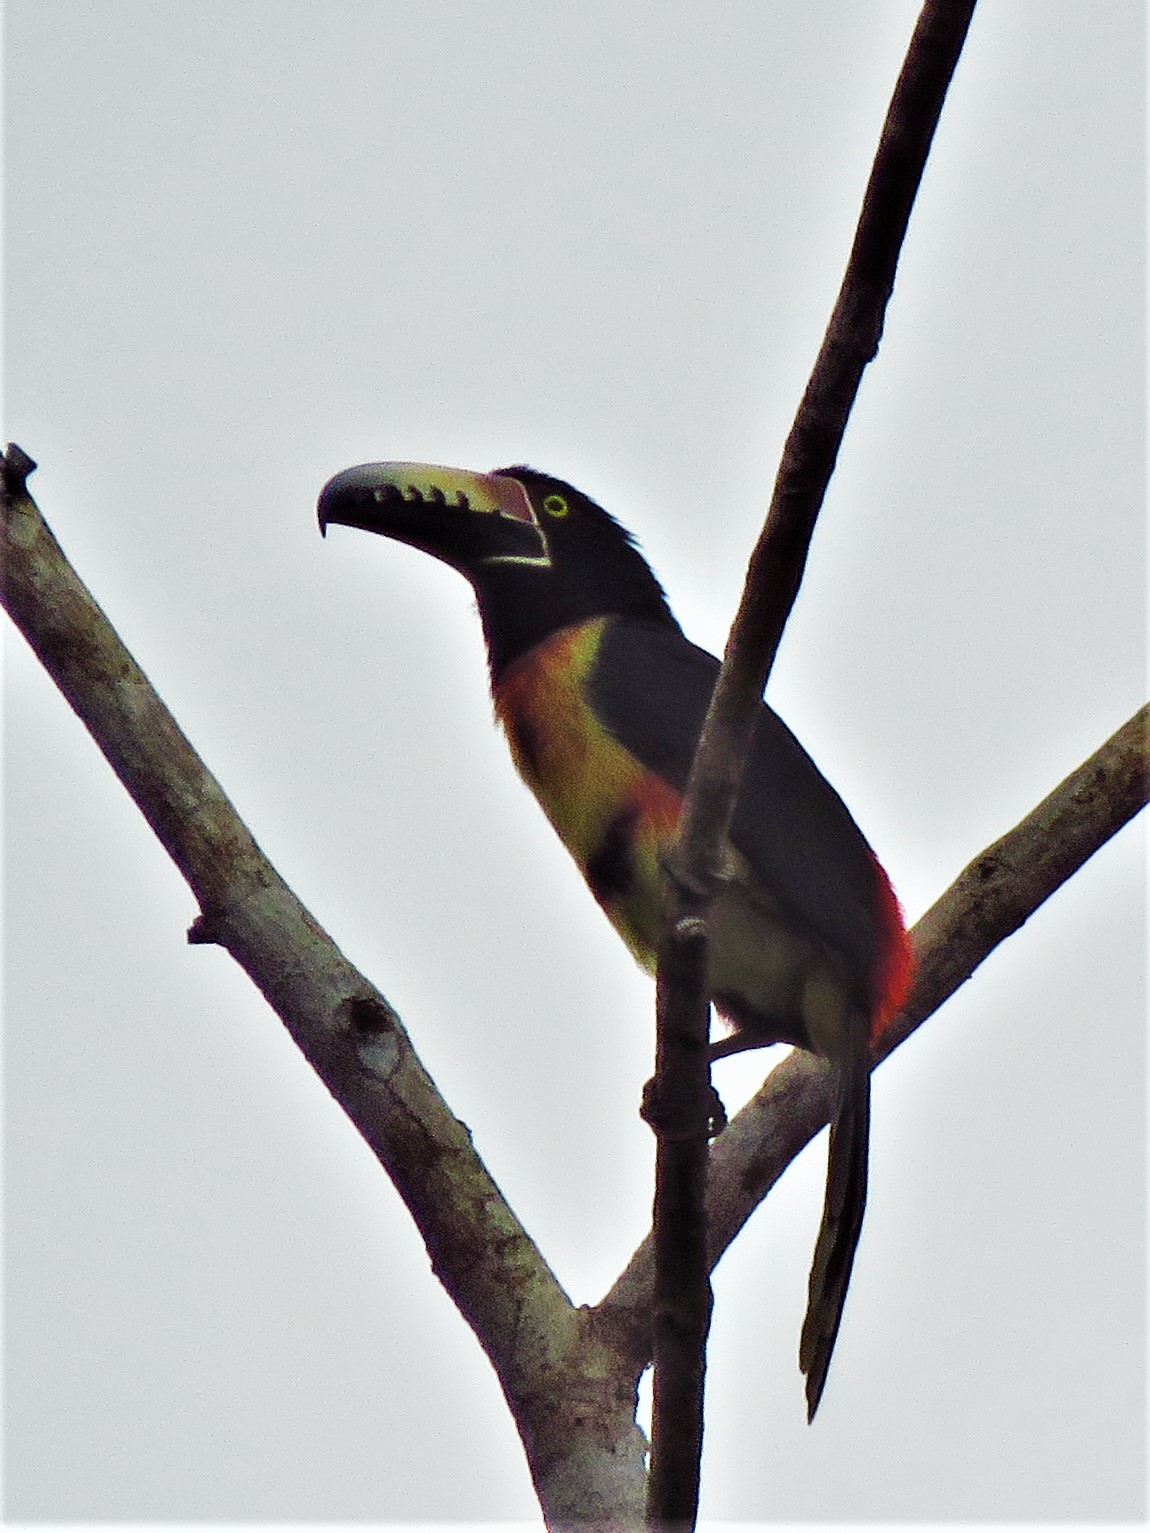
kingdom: Animalia
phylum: Chordata
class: Aves
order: Piciformes
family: Ramphastidae
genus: Pteroglossus
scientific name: Pteroglossus torquatus
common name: Collared aracari
